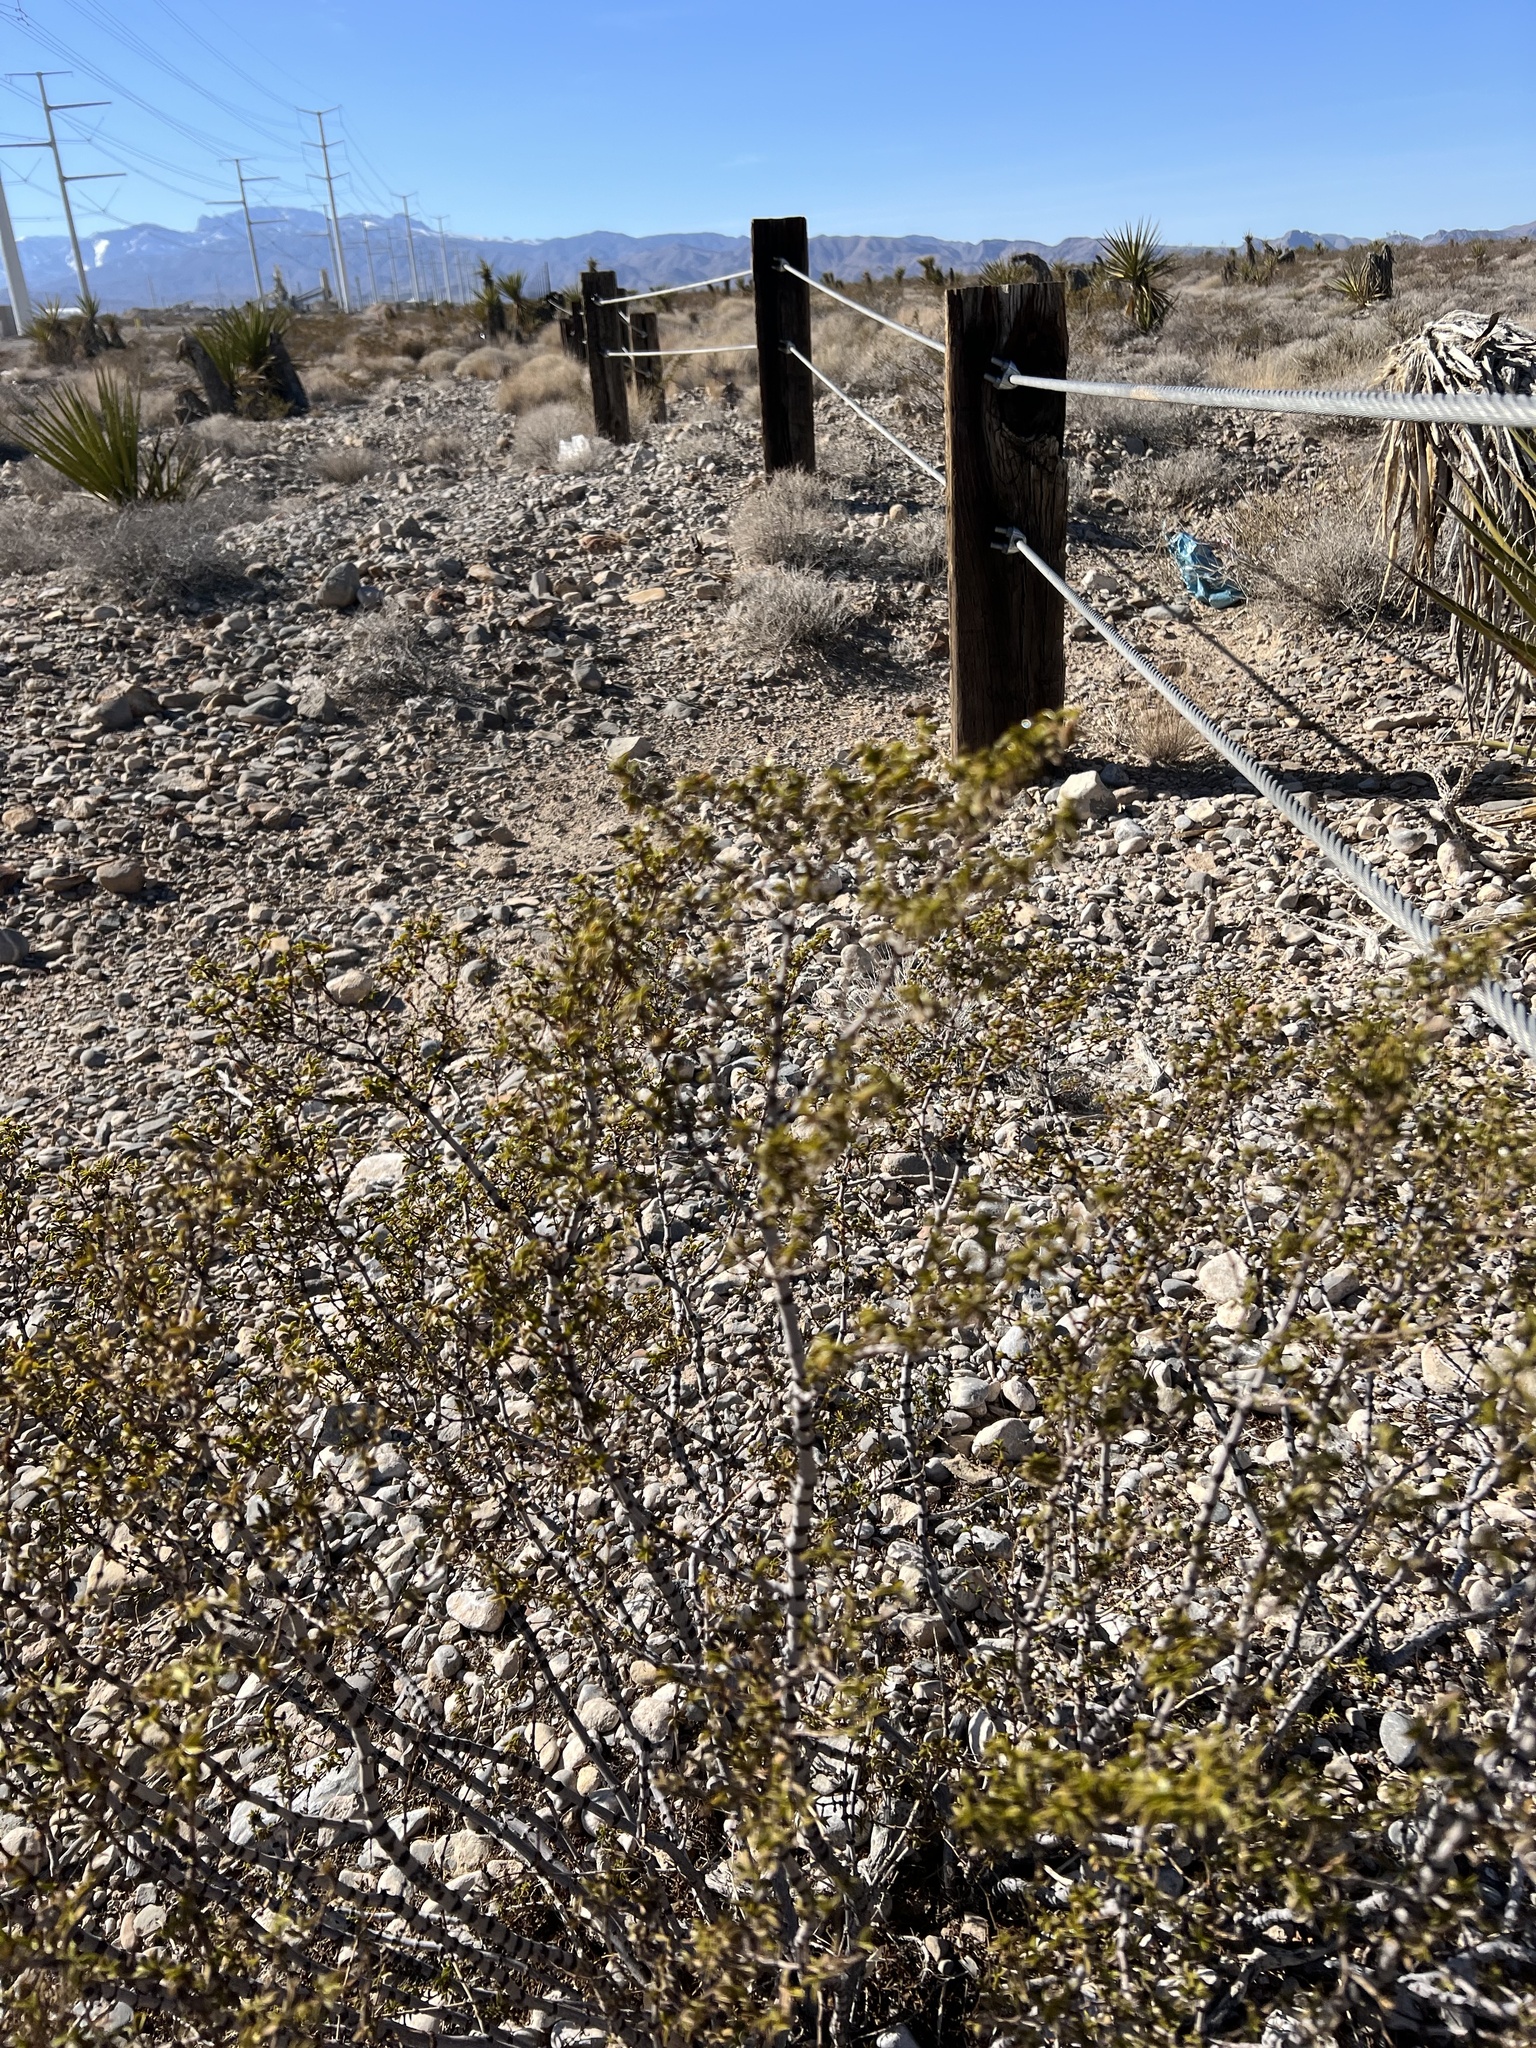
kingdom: Plantae
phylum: Tracheophyta
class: Magnoliopsida
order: Zygophyllales
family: Zygophyllaceae
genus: Larrea
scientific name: Larrea tridentata
